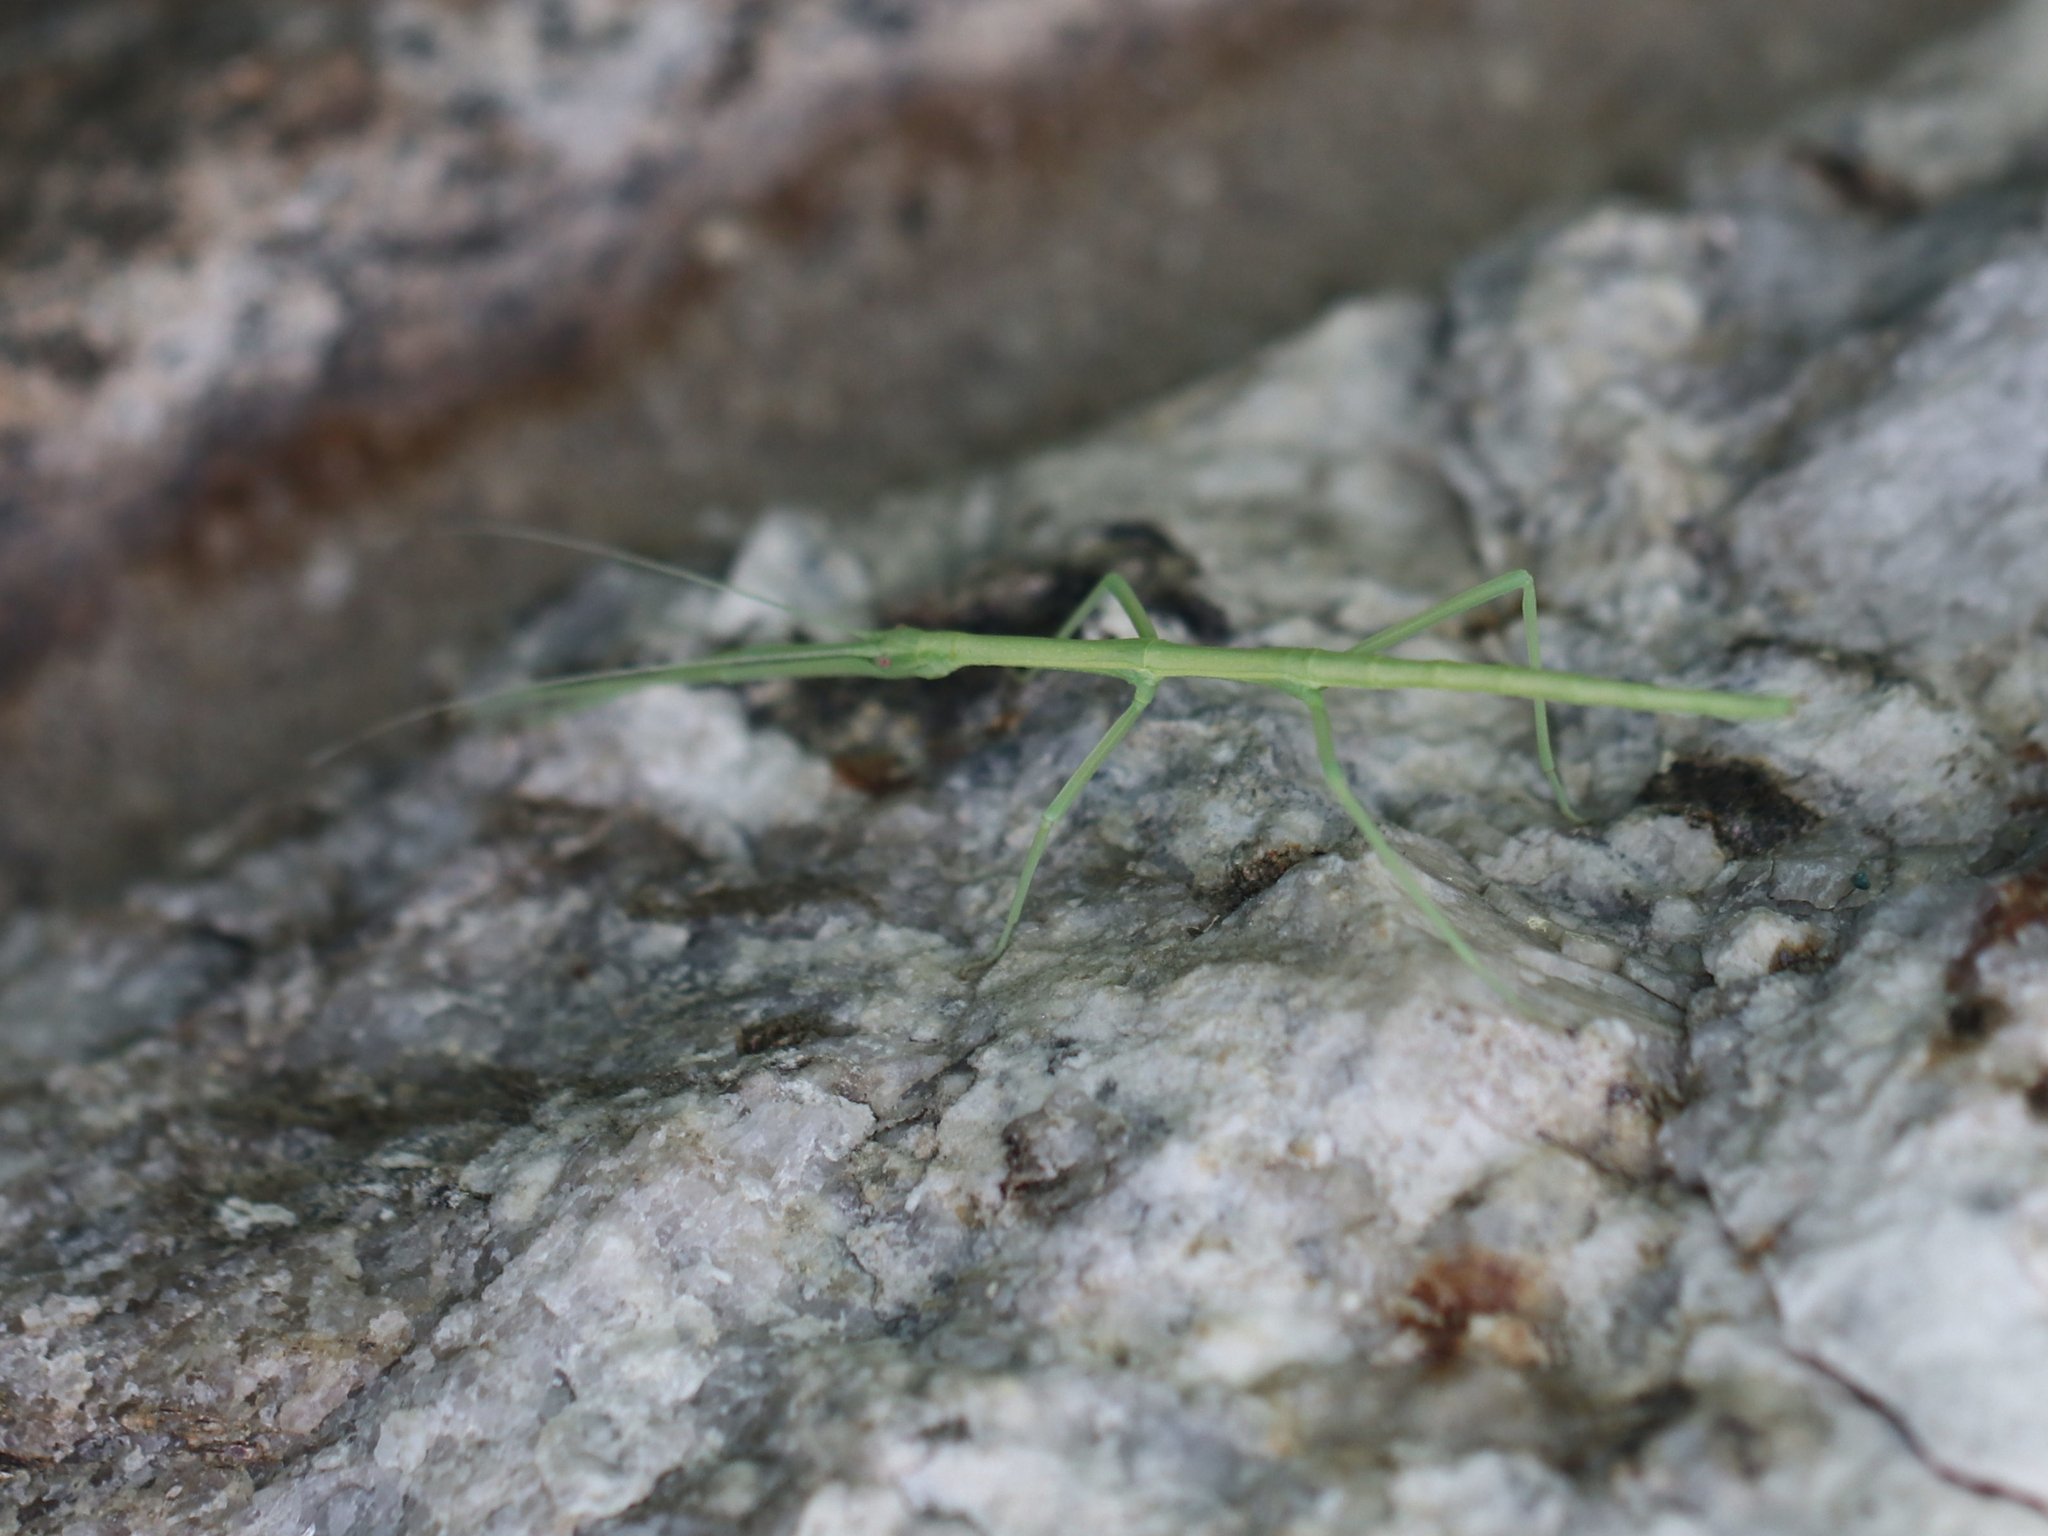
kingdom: Animalia
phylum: Arthropoda
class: Insecta
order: Phasmida
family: Diapheromeridae
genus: Diapheromera
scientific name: Diapheromera femorata
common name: Common american walkingstick
